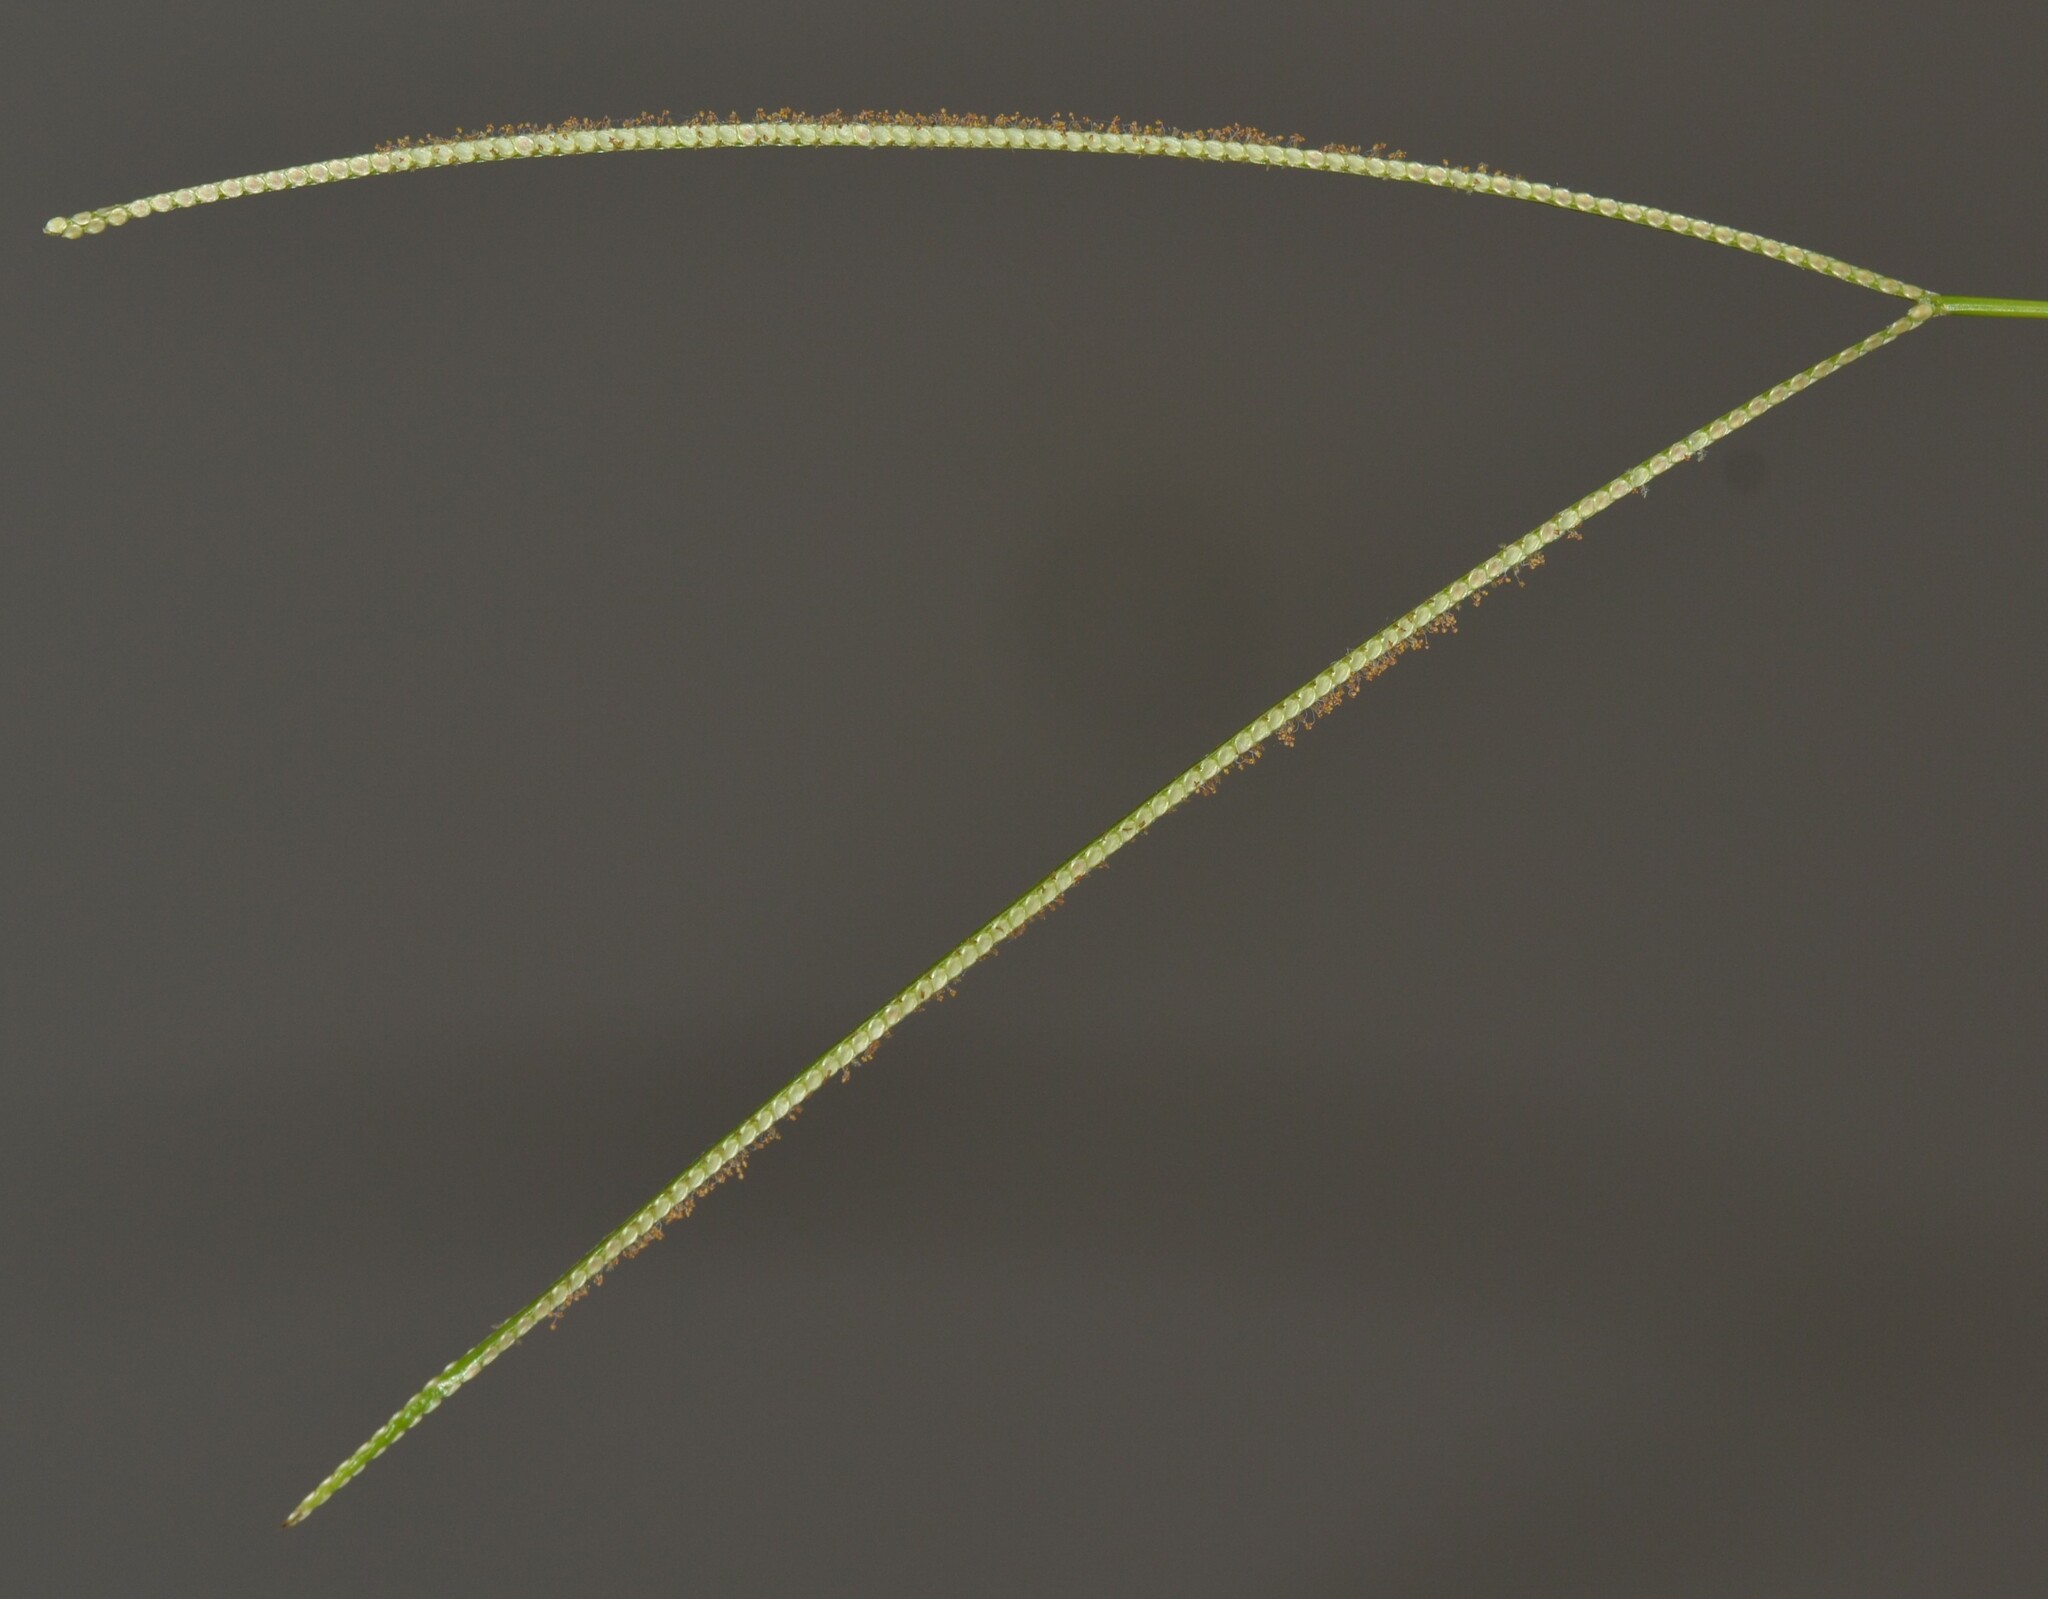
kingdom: Plantae
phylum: Tracheophyta
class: Liliopsida
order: Poales
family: Poaceae
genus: Paspalum
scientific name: Paspalum conjugatum
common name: Hilograss
